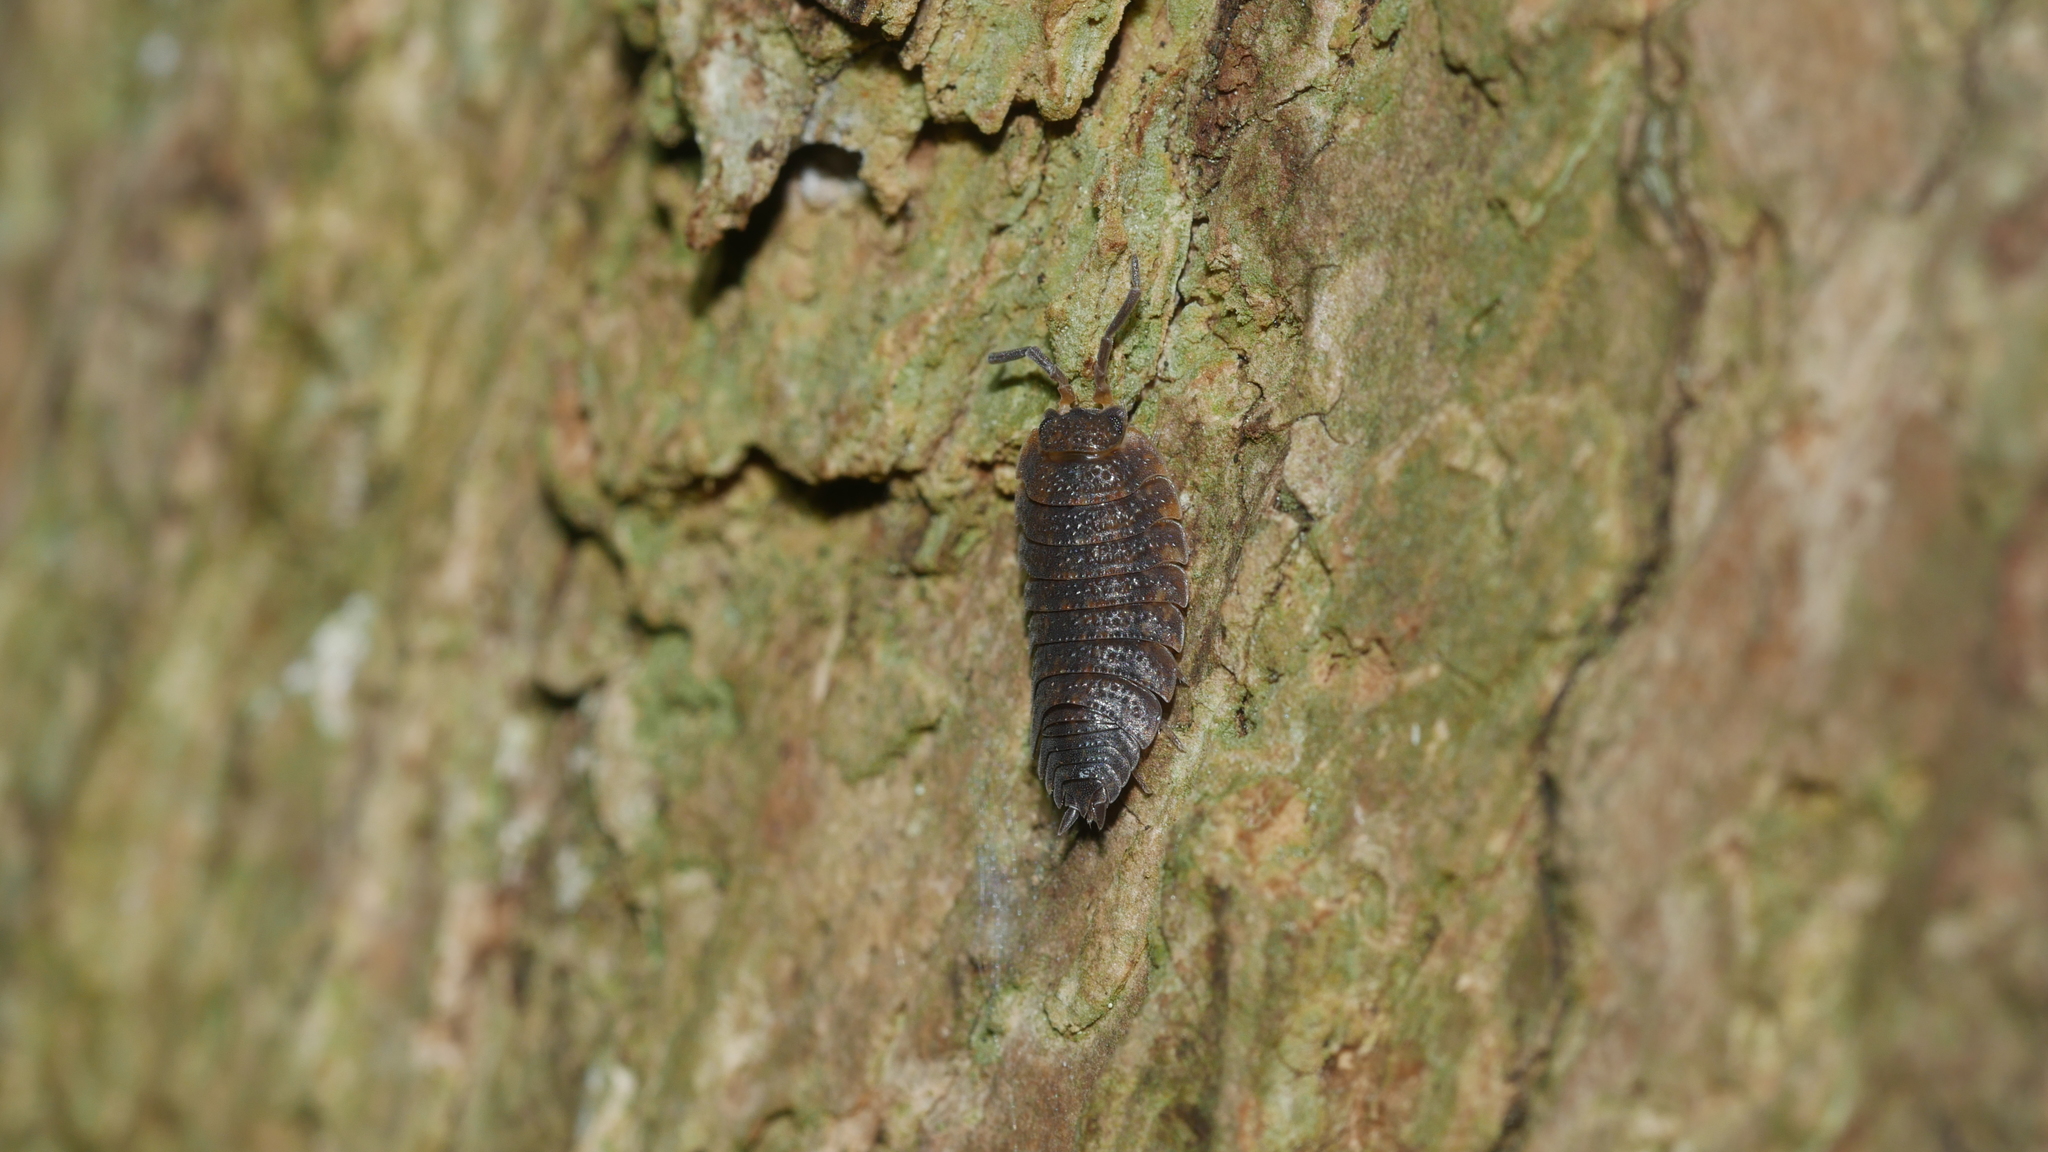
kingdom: Animalia
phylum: Arthropoda
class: Malacostraca
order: Isopoda
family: Porcellionidae
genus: Porcellio
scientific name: Porcellio scaber
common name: Common rough woodlouse
